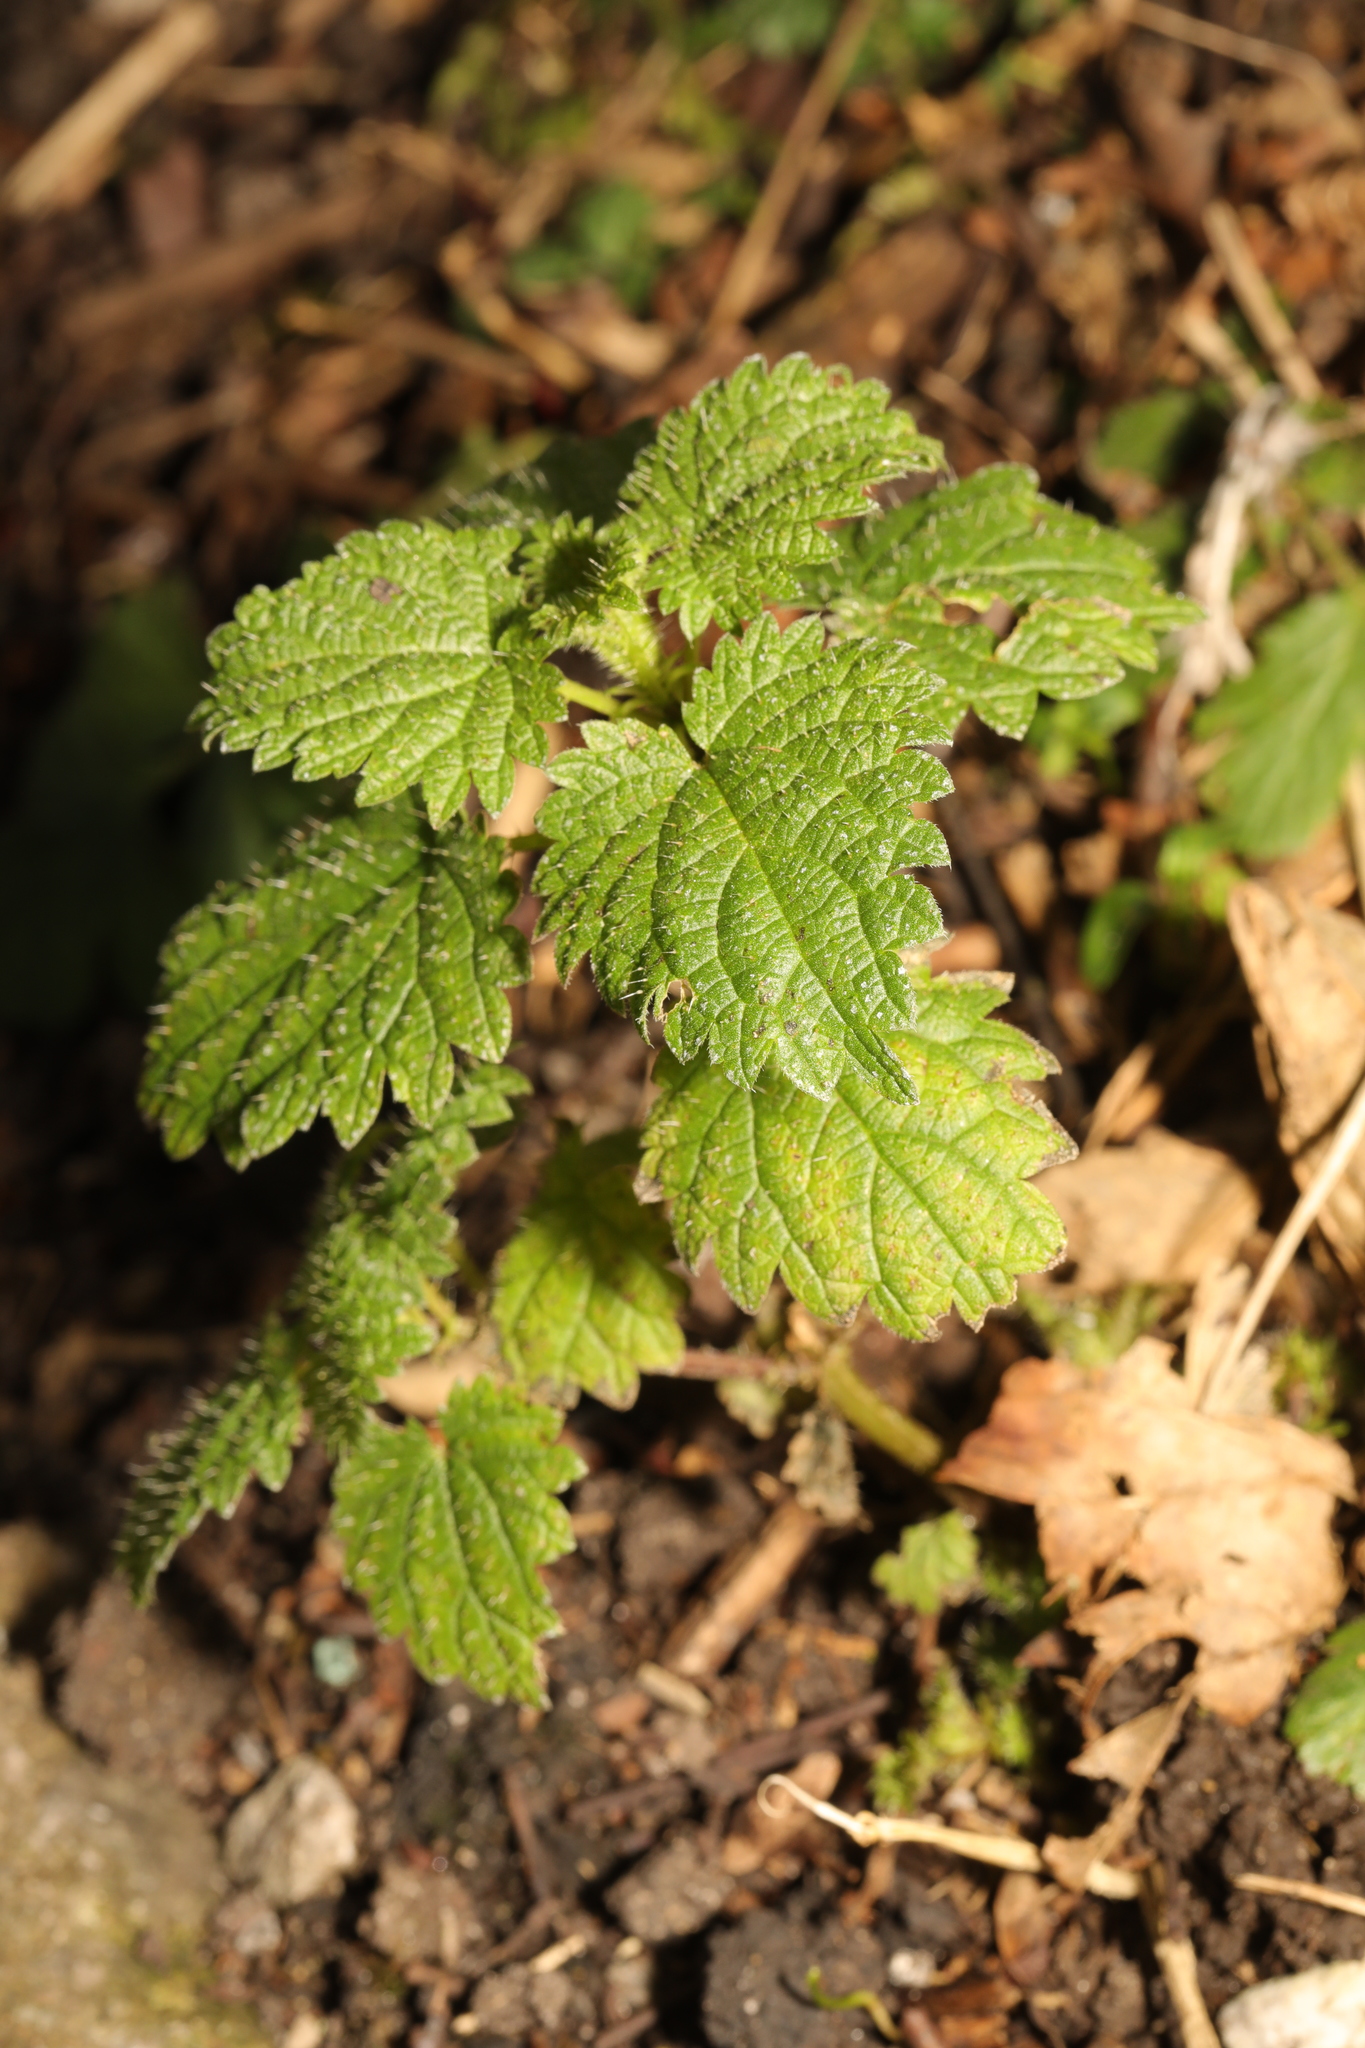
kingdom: Plantae
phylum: Tracheophyta
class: Magnoliopsida
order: Rosales
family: Urticaceae
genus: Urtica
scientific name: Urtica dioica
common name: Common nettle
